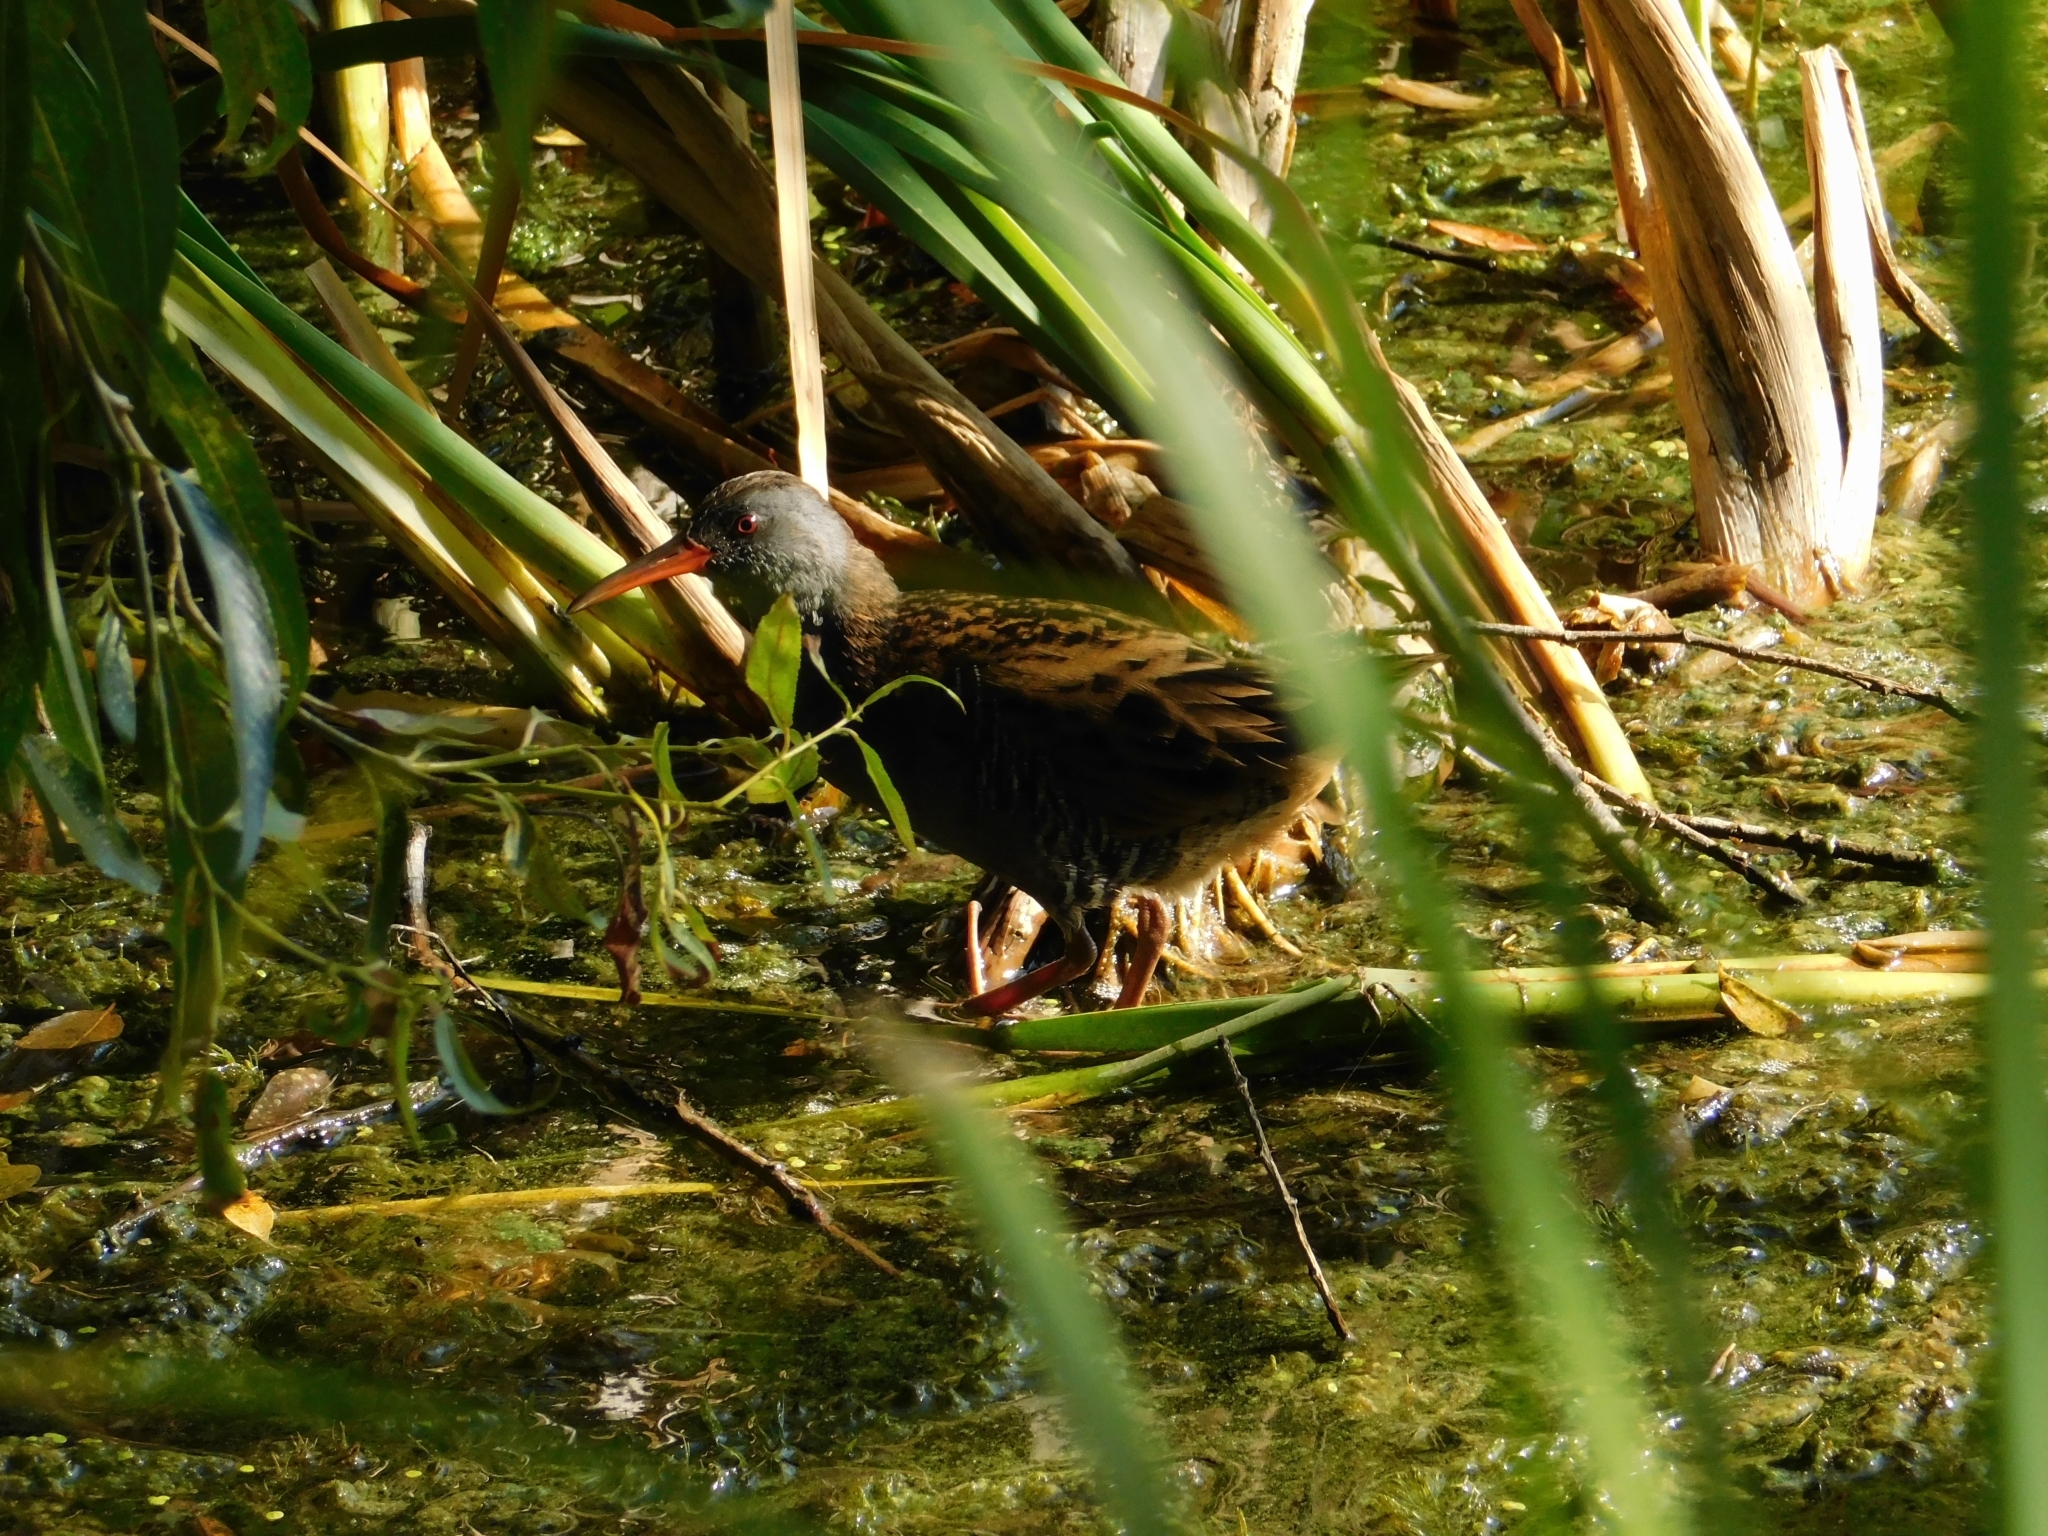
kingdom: Animalia
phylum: Chordata
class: Aves
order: Gruiformes
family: Rallidae
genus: Rallus
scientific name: Rallus aquaticus
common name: Water rail
